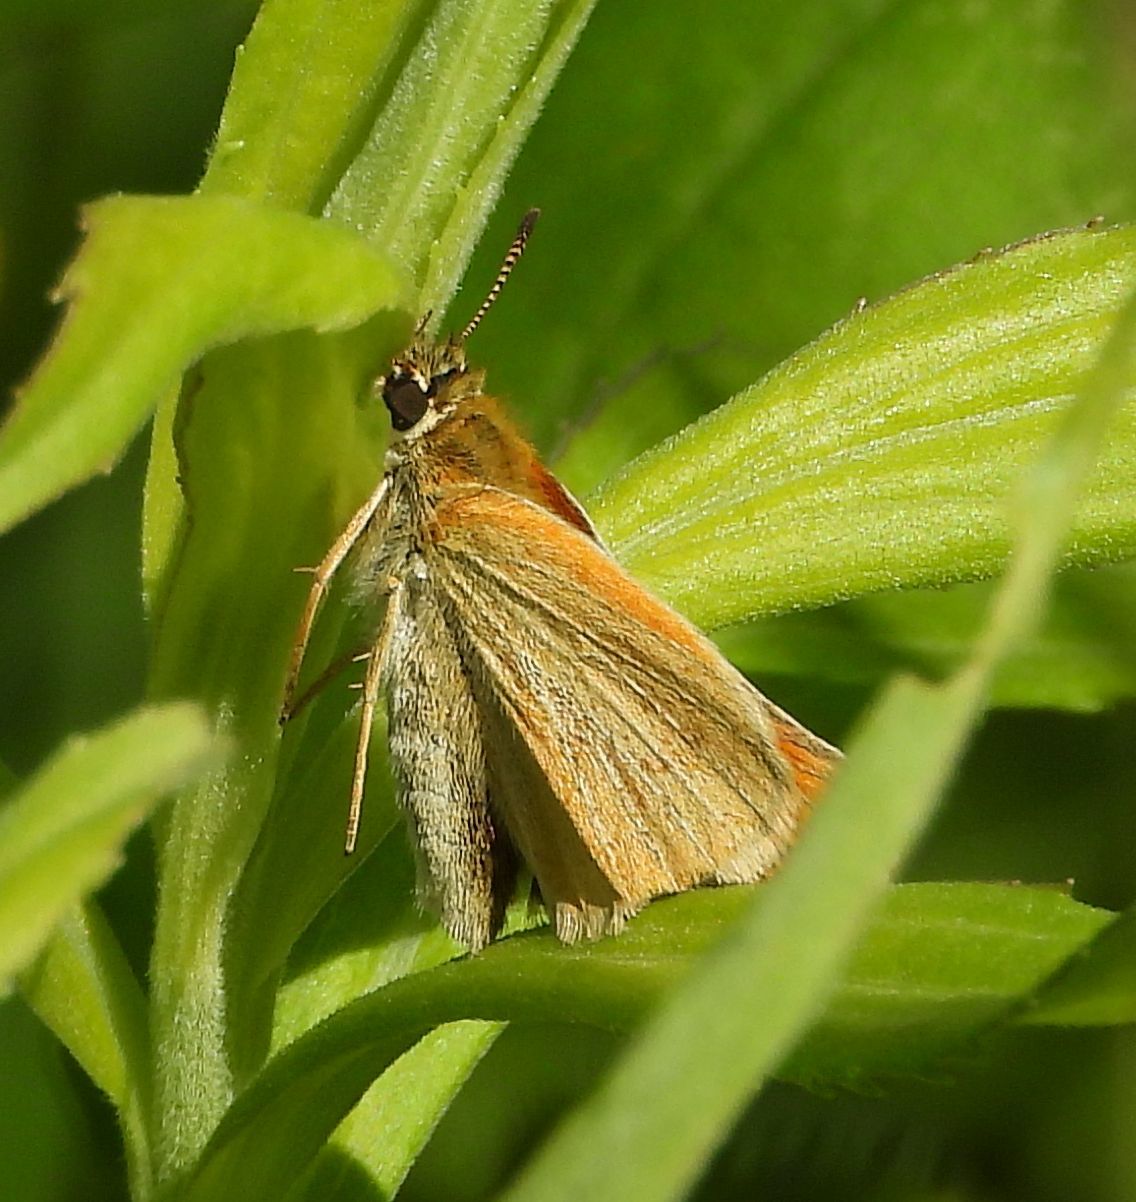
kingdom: Animalia
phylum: Arthropoda
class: Insecta
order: Lepidoptera
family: Hesperiidae
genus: Thymelicus
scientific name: Thymelicus lineola
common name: Essex skipper
